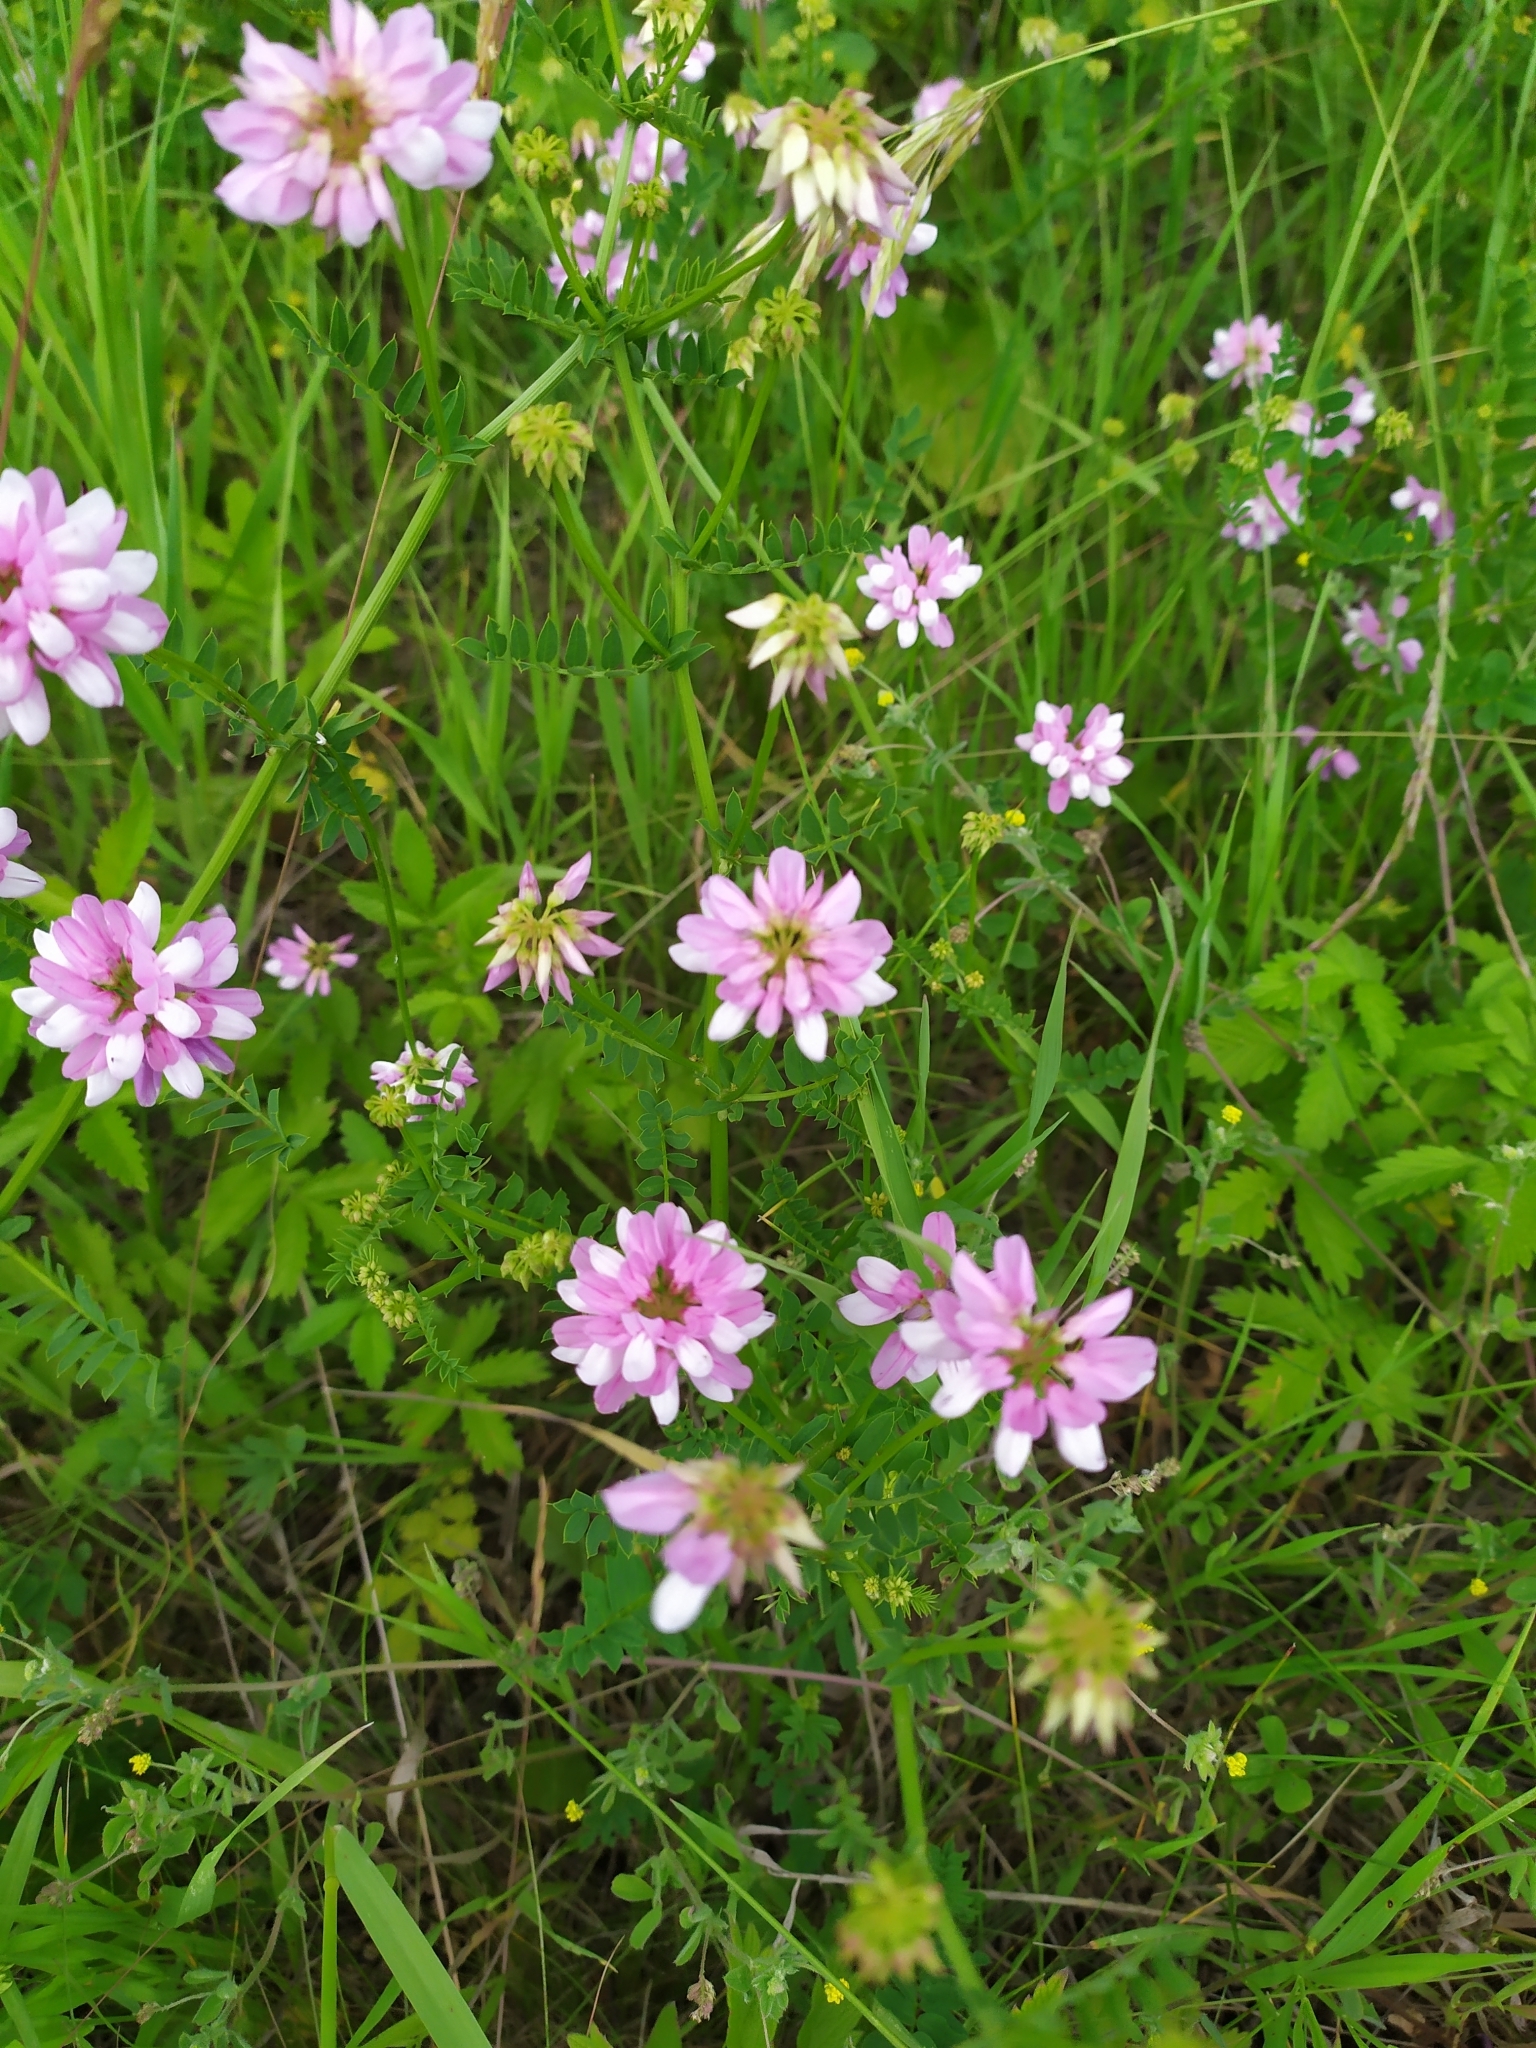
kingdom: Plantae
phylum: Tracheophyta
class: Magnoliopsida
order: Fabales
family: Fabaceae
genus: Coronilla
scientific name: Coronilla varia
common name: Crownvetch
